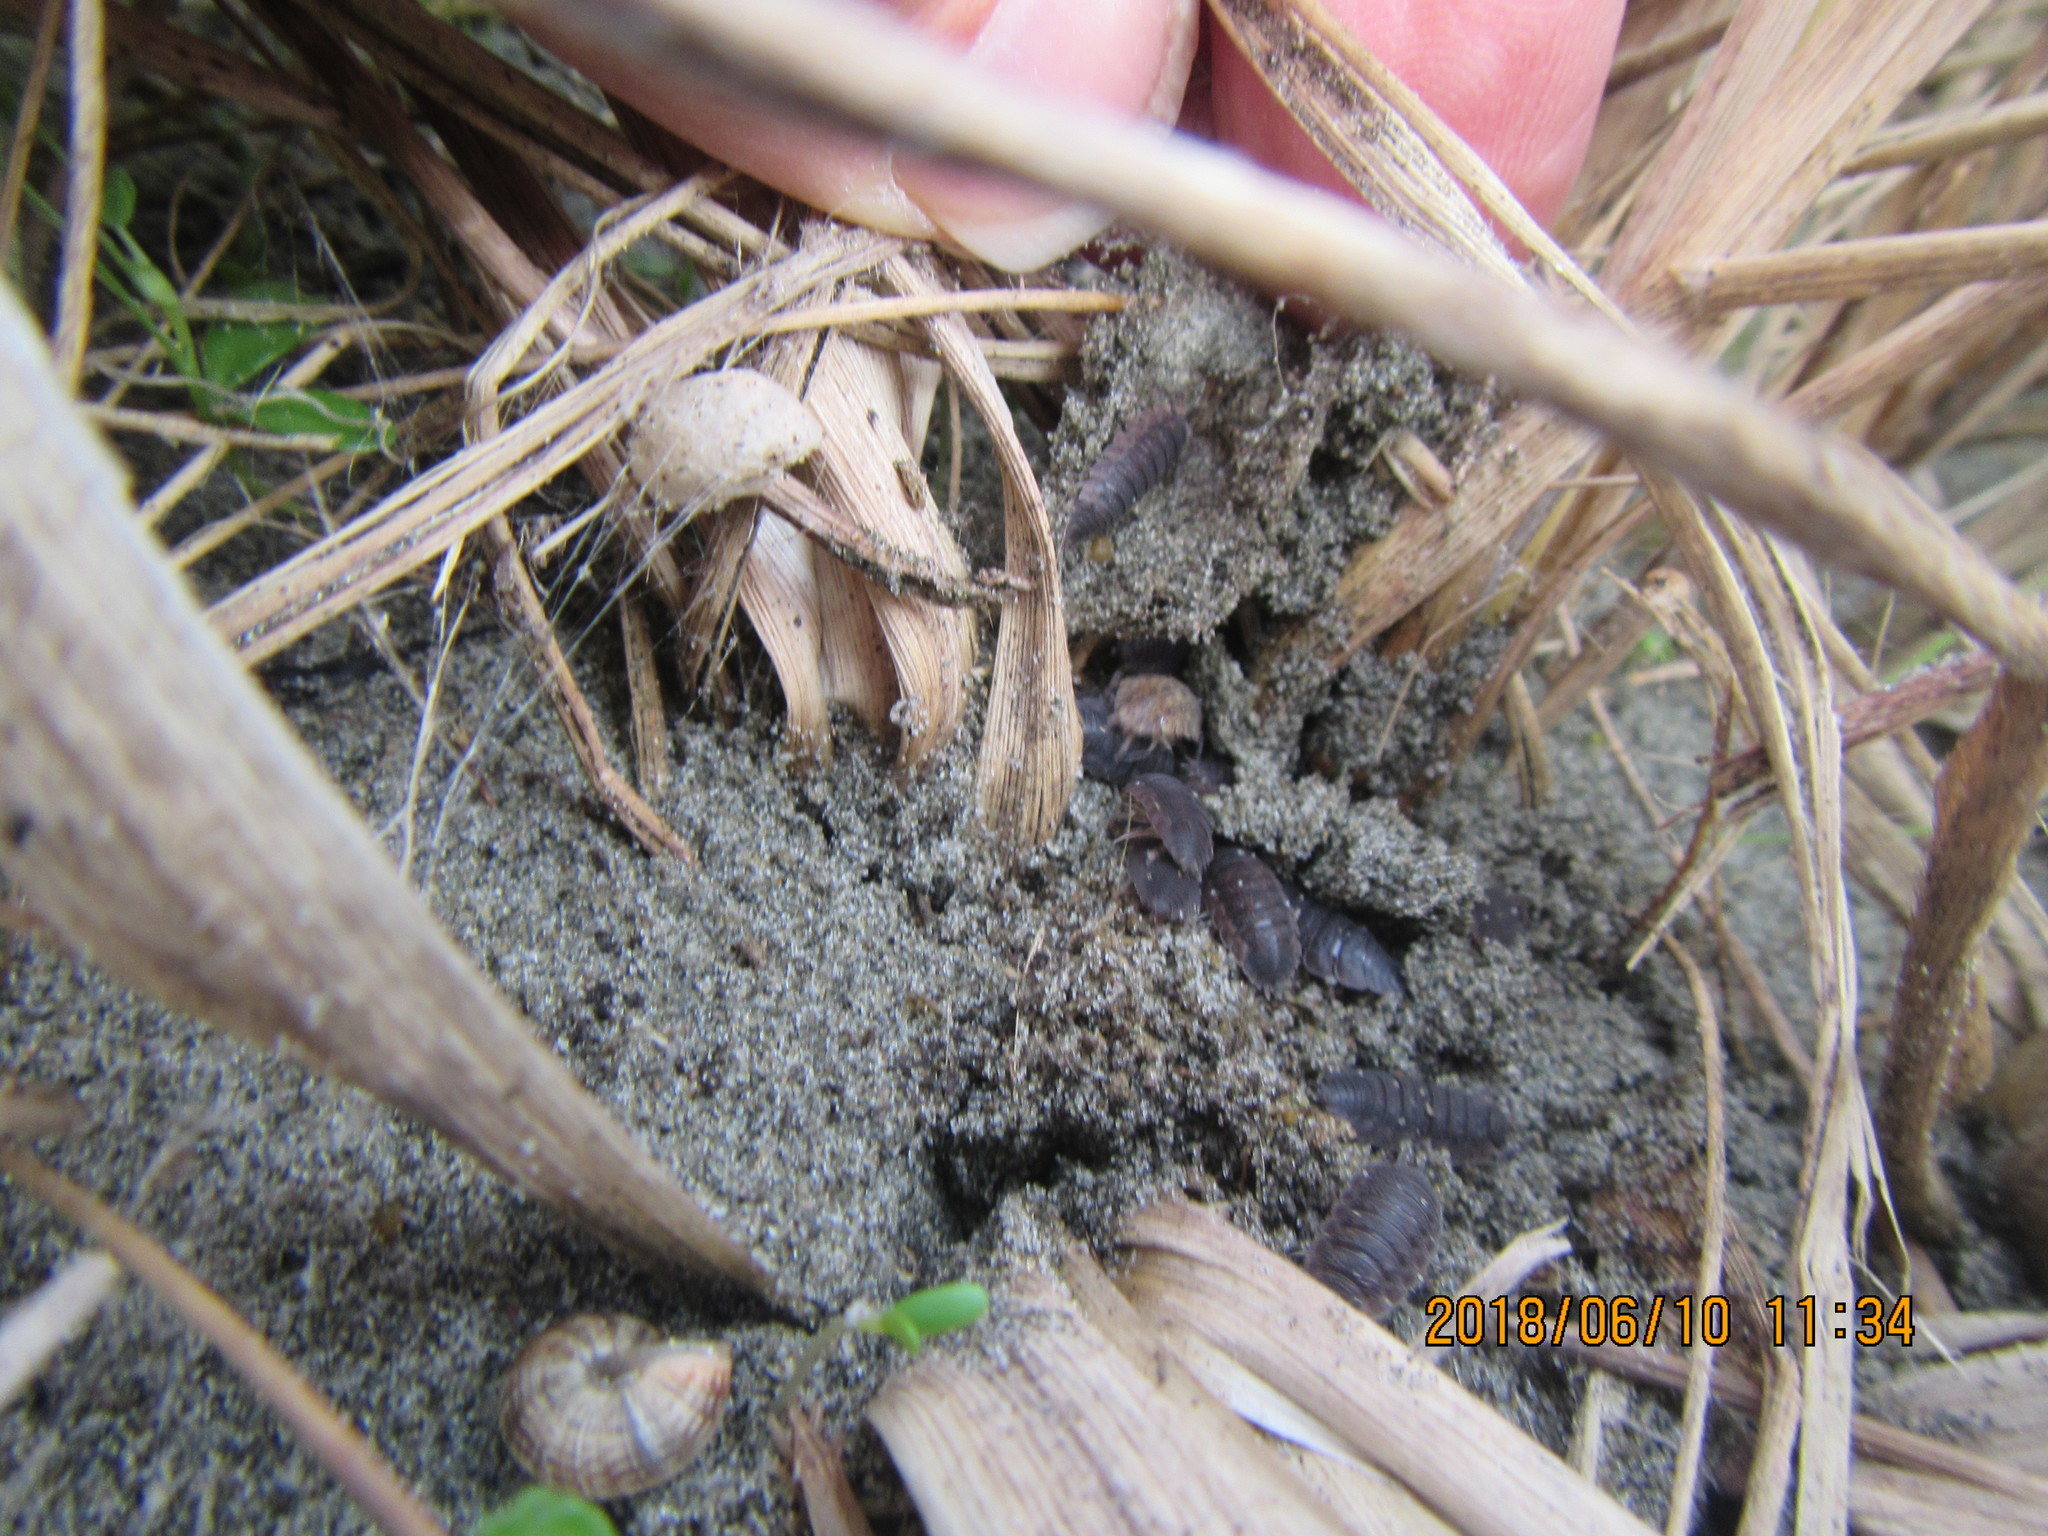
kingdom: Animalia
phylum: Arthropoda
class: Malacostraca
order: Isopoda
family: Porcellionidae
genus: Porcellio
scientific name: Porcellio scaber
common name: Common rough woodlouse
